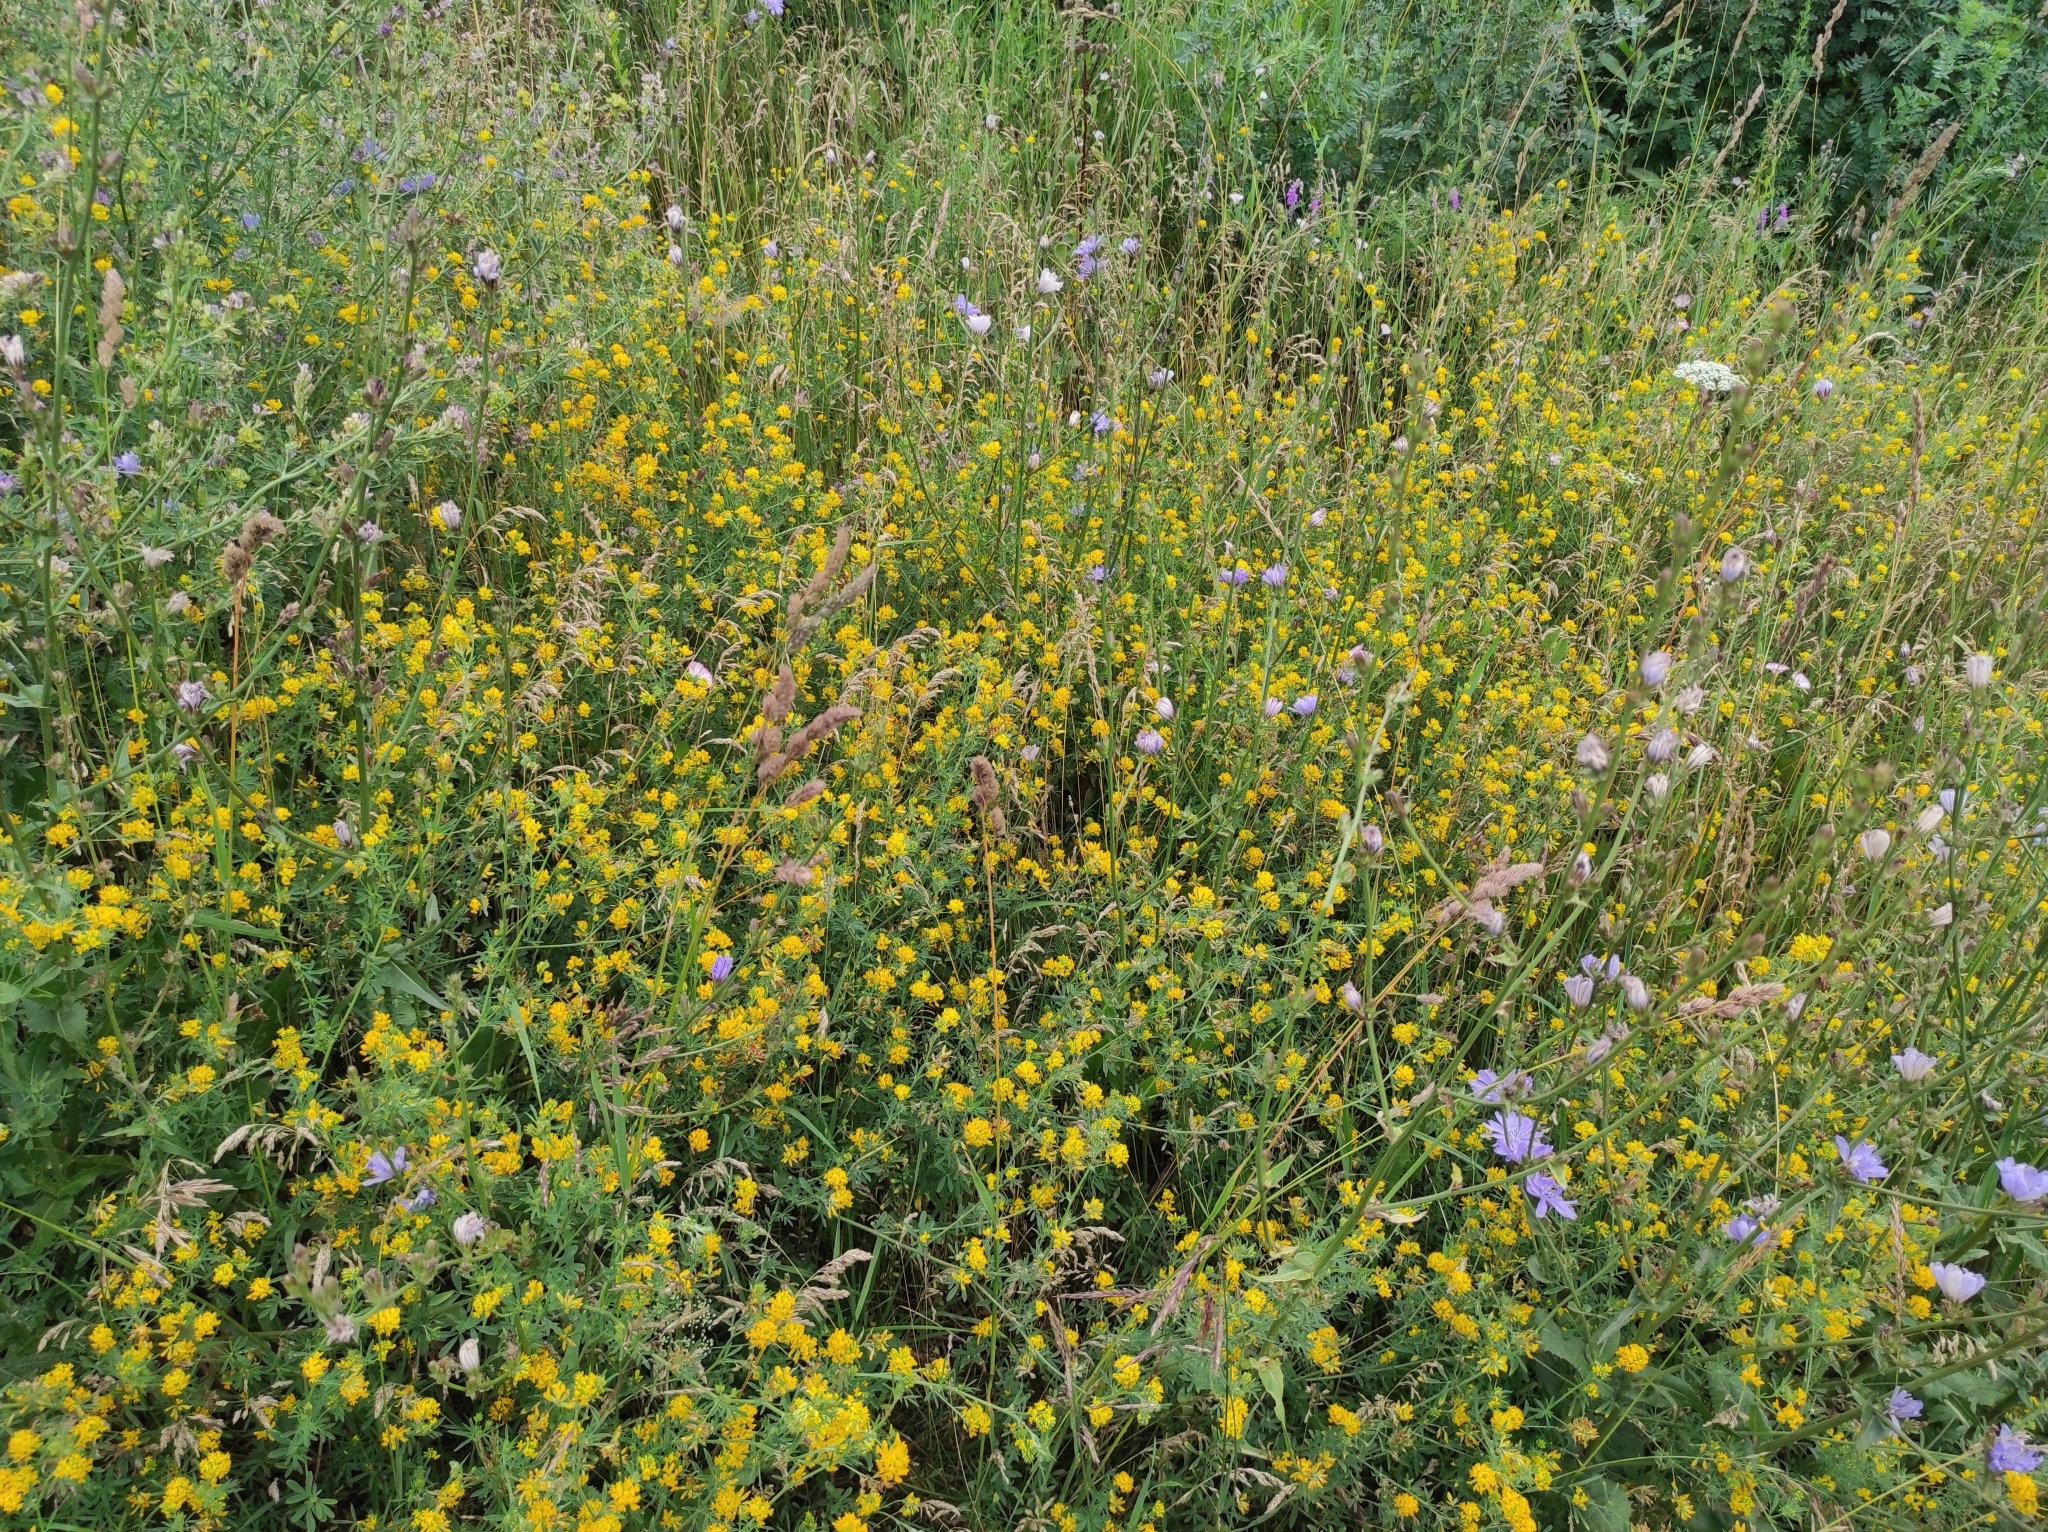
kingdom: Plantae
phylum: Tracheophyta
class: Magnoliopsida
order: Fabales
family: Fabaceae
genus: Medicago
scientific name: Medicago falcata
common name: Sickle medick
